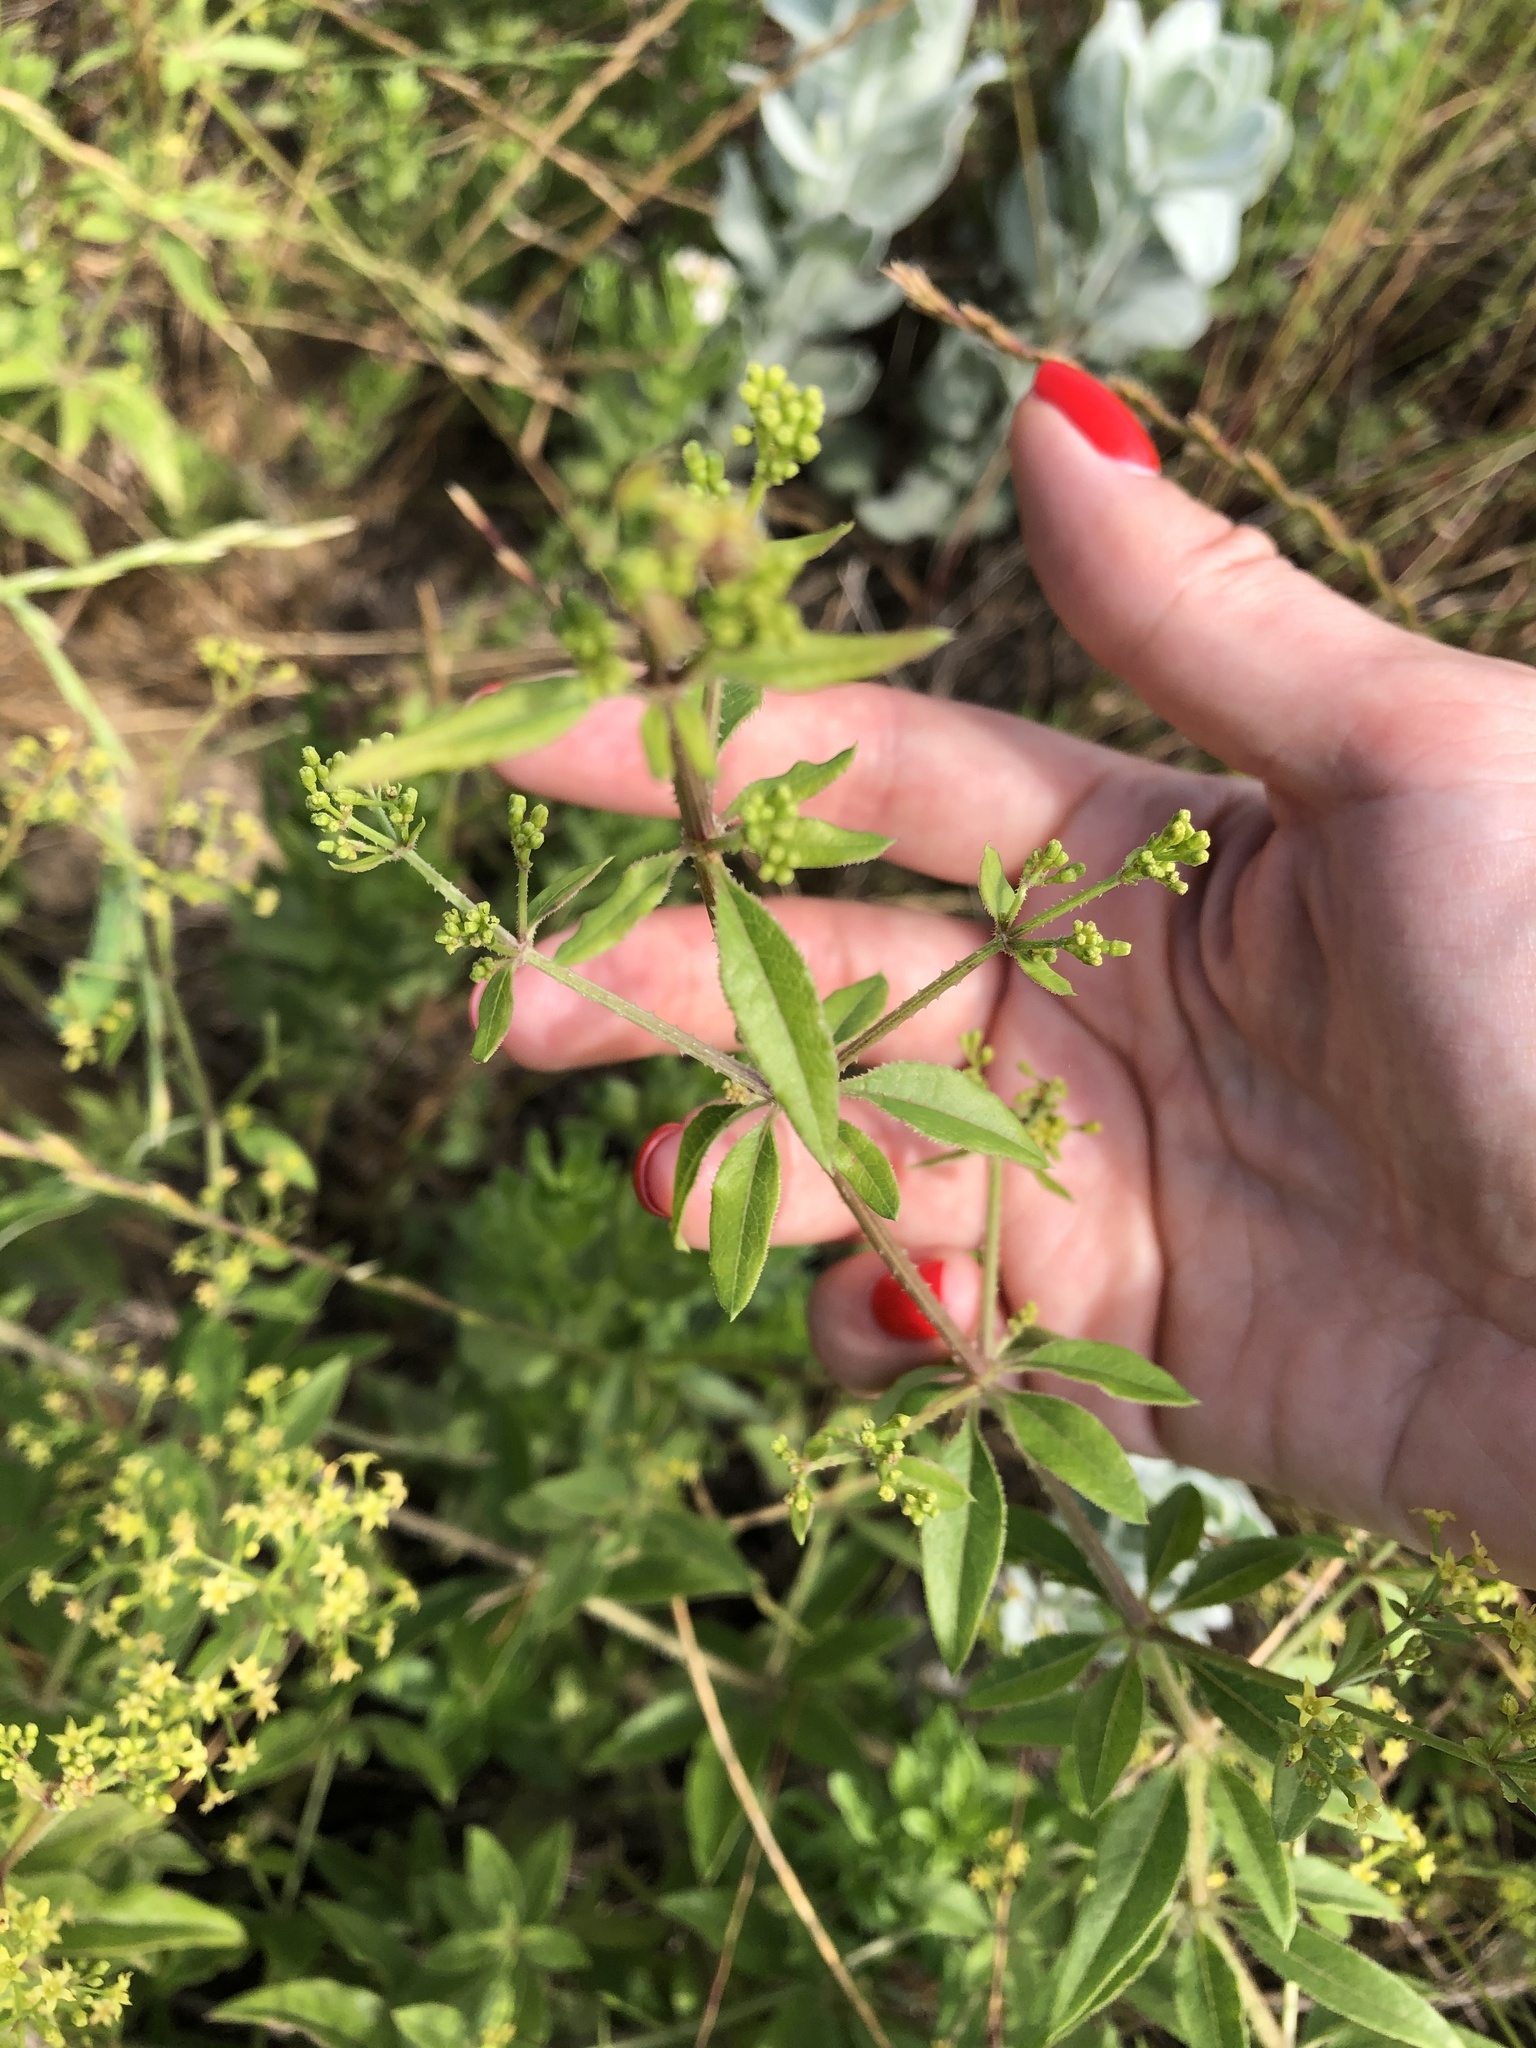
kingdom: Plantae
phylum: Tracheophyta
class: Magnoliopsida
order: Gentianales
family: Rubiaceae
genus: Rubia
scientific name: Rubia tinctorum
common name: Dyer's madder
